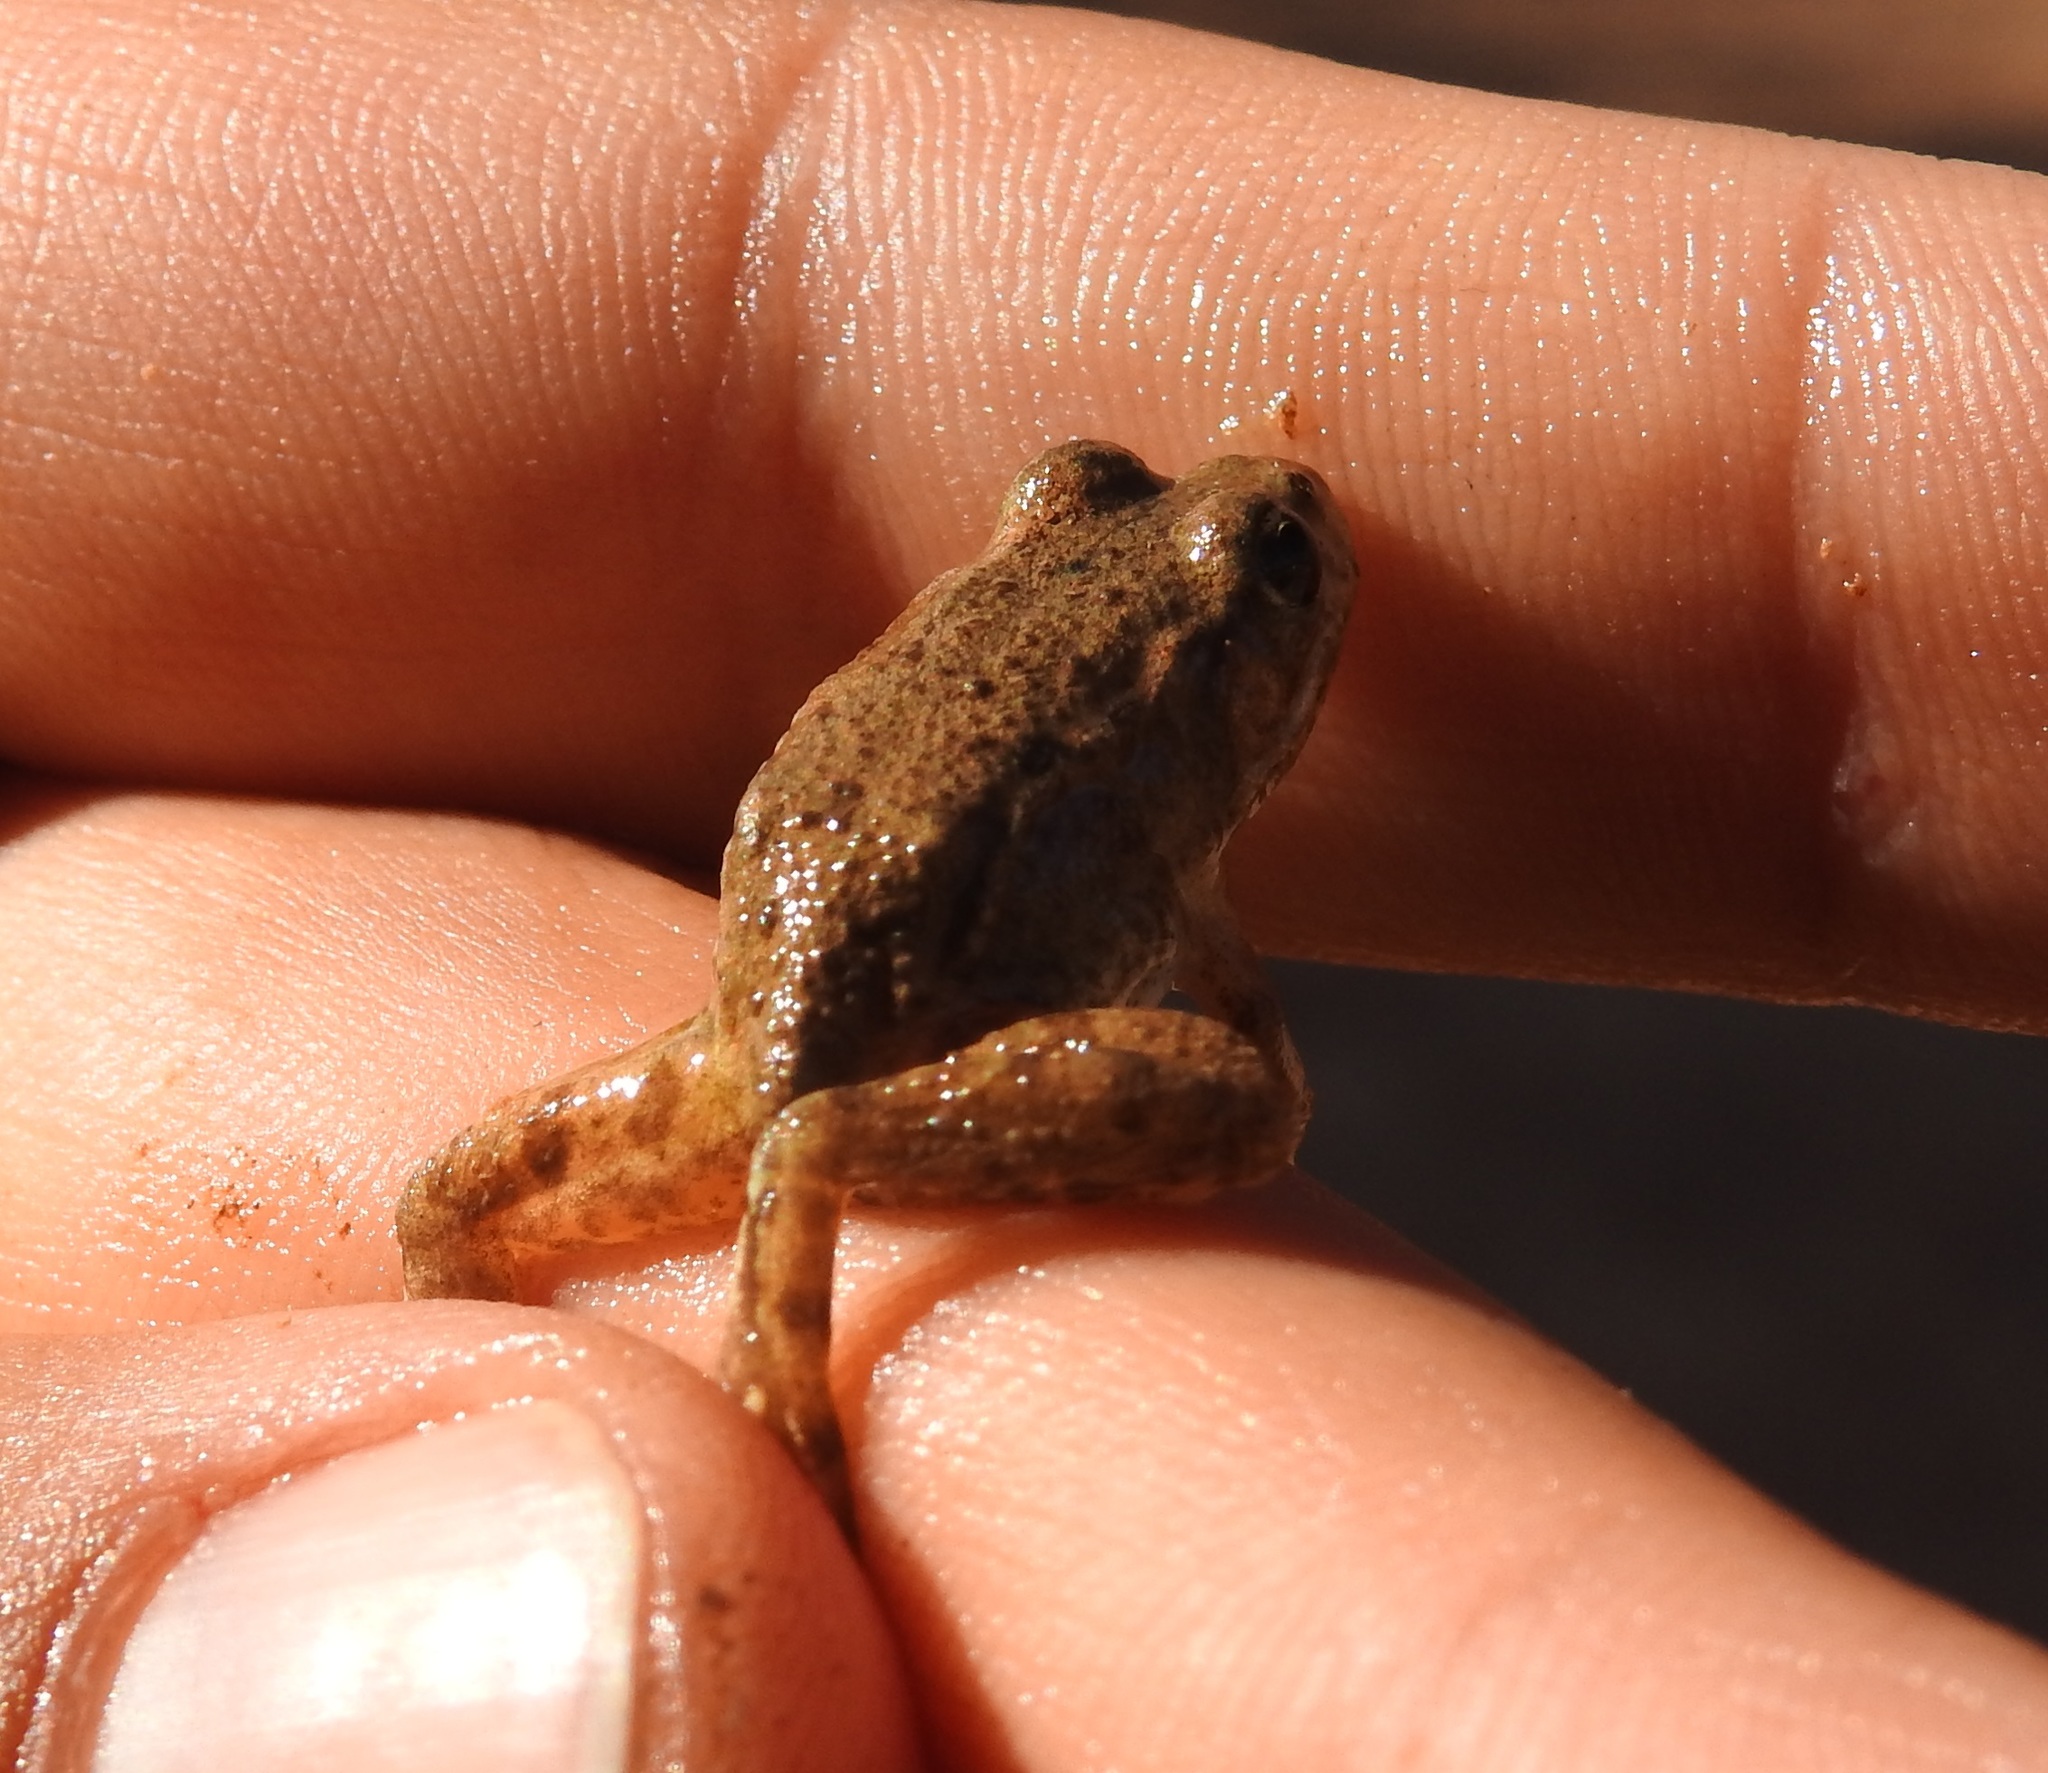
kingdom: Animalia
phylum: Chordata
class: Amphibia
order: Anura
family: Ranidae
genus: Pelophylax
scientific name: Pelophylax saharicus
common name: Sahara frog
